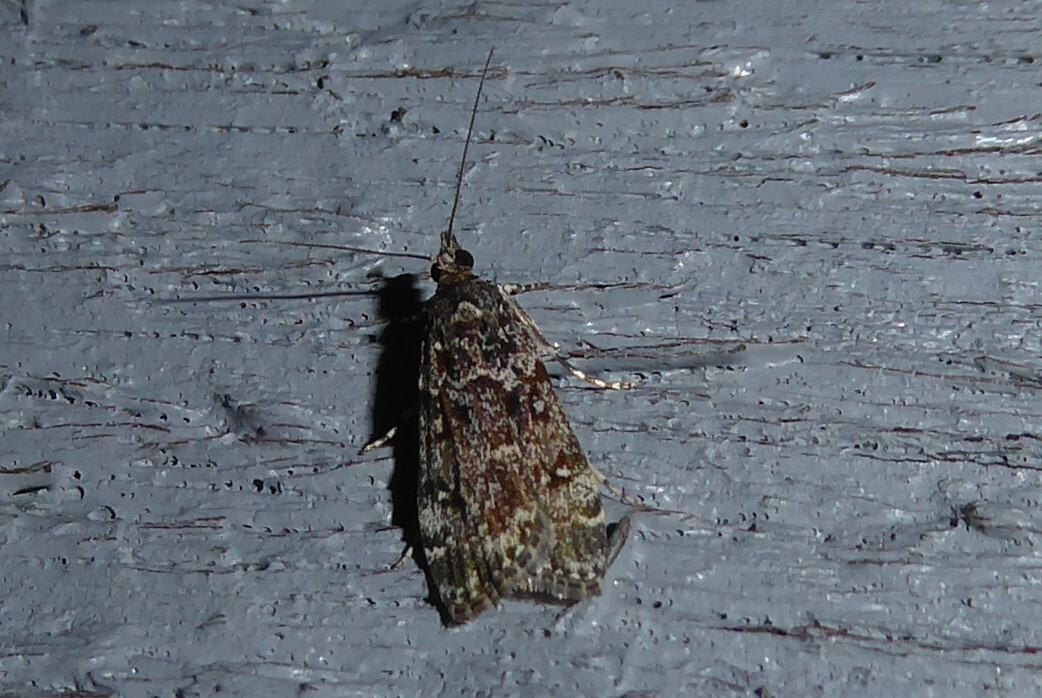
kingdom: Animalia
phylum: Arthropoda
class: Insecta
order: Lepidoptera
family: Crambidae
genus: Eudonia
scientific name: Eudonia philerga
